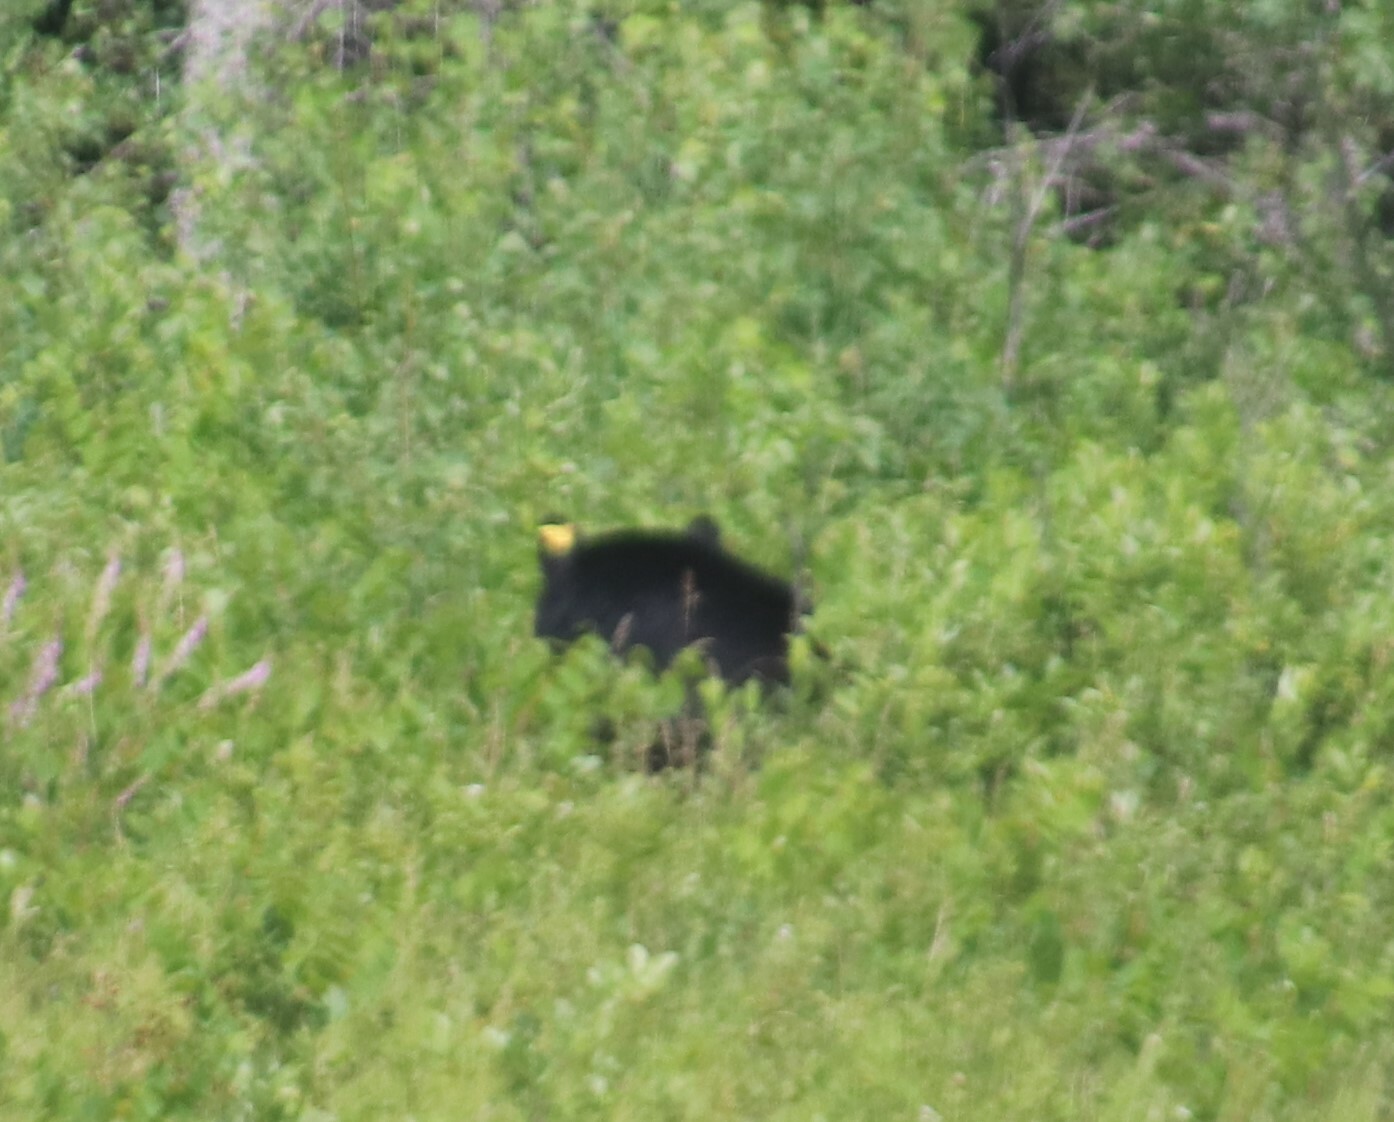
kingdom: Animalia
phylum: Chordata
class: Mammalia
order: Carnivora
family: Ursidae
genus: Ursus
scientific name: Ursus americanus
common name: American black bear
